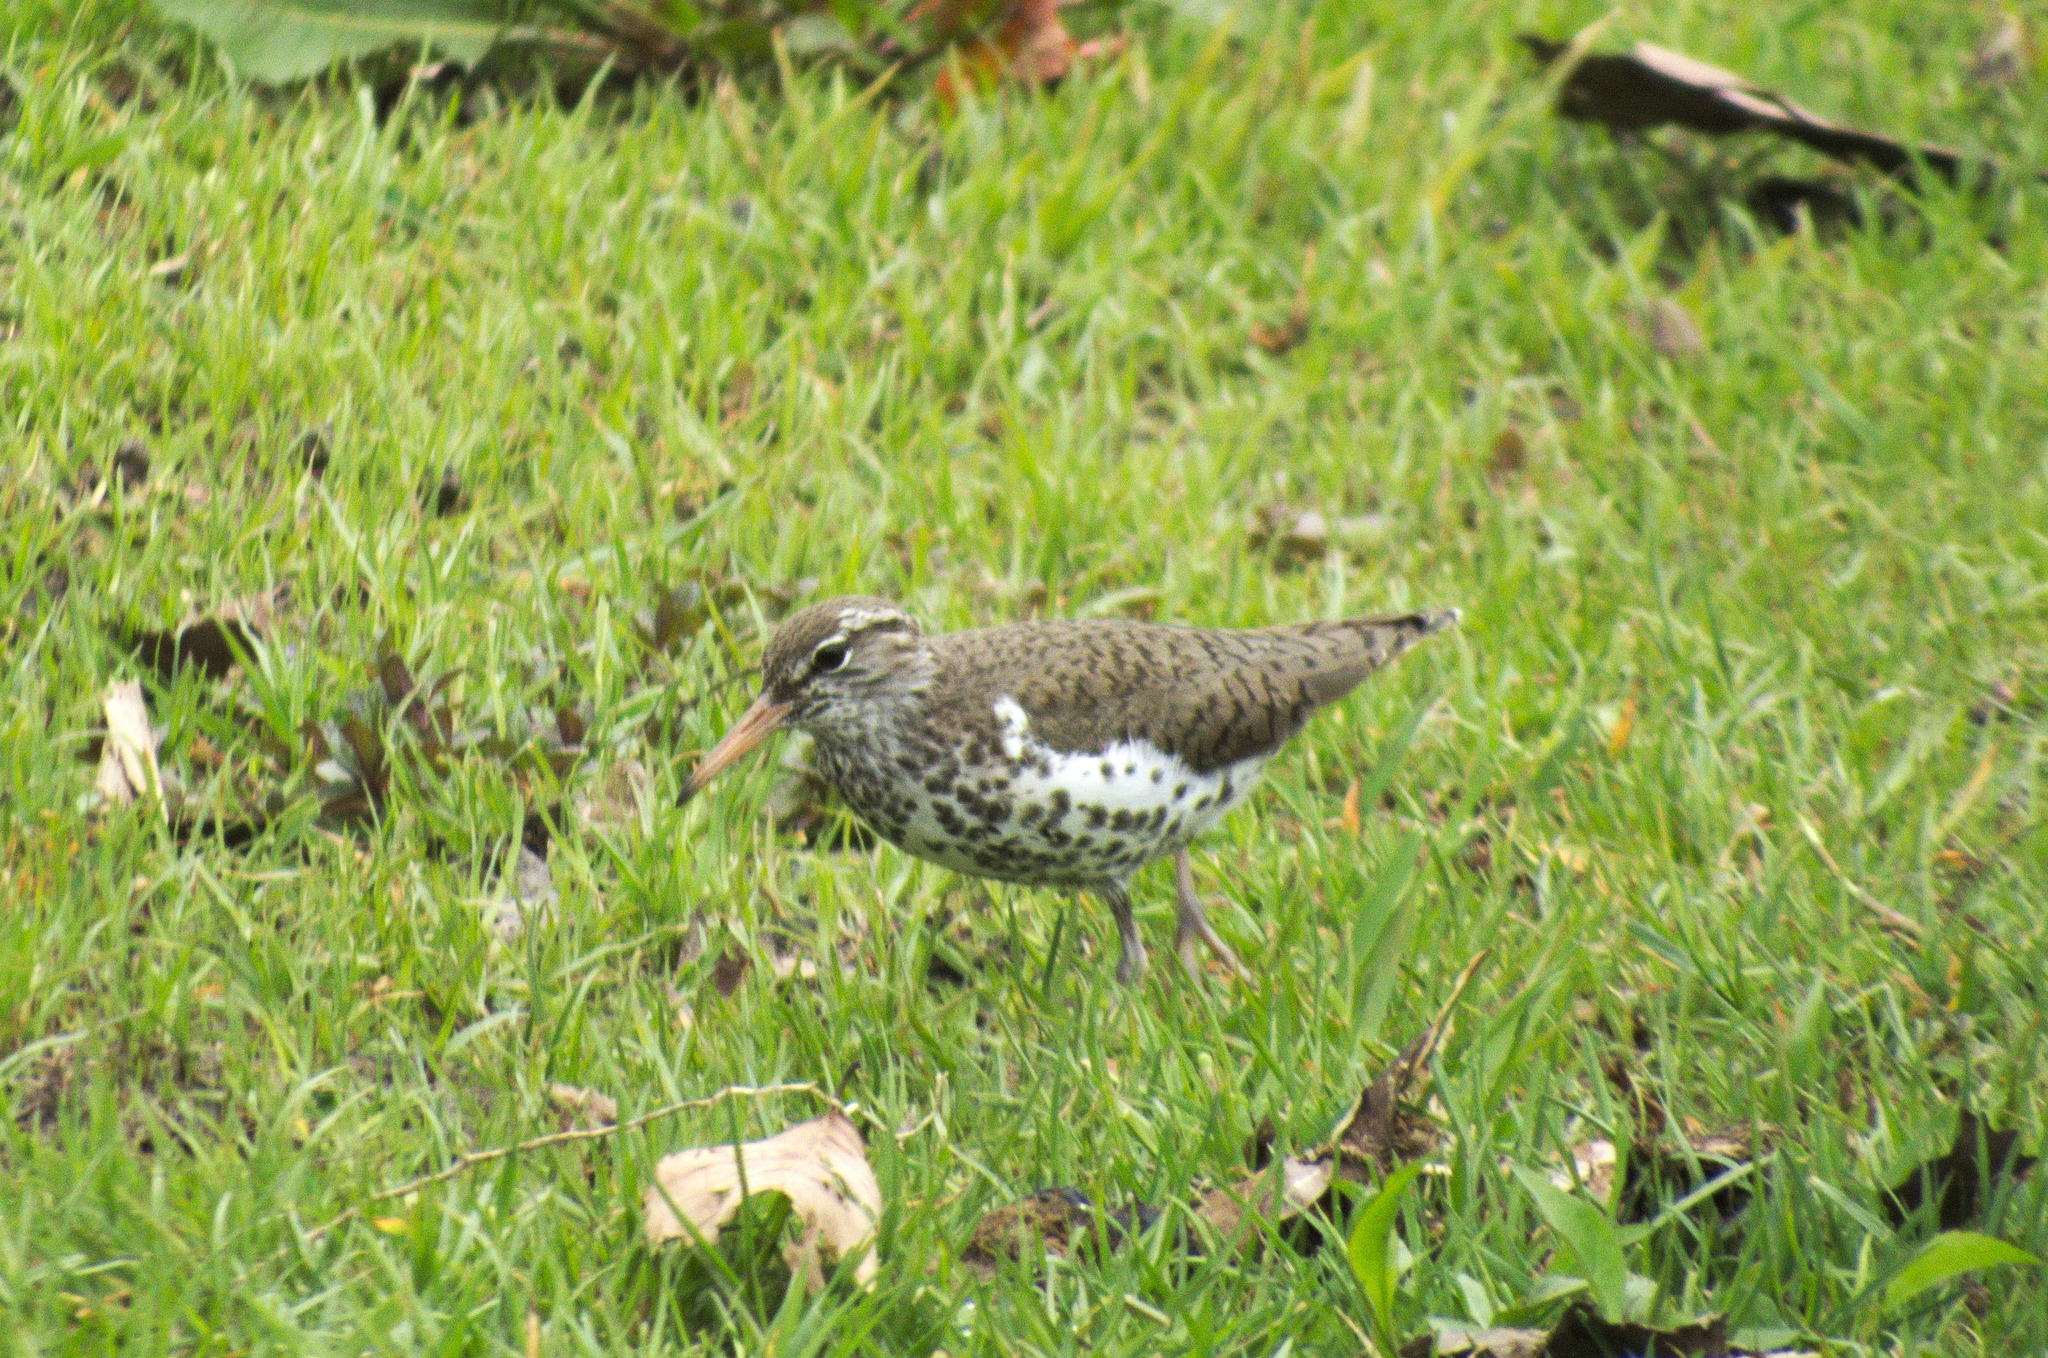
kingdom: Animalia
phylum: Chordata
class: Aves
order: Charadriiformes
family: Scolopacidae
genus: Actitis
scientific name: Actitis macularius
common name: Spotted sandpiper
